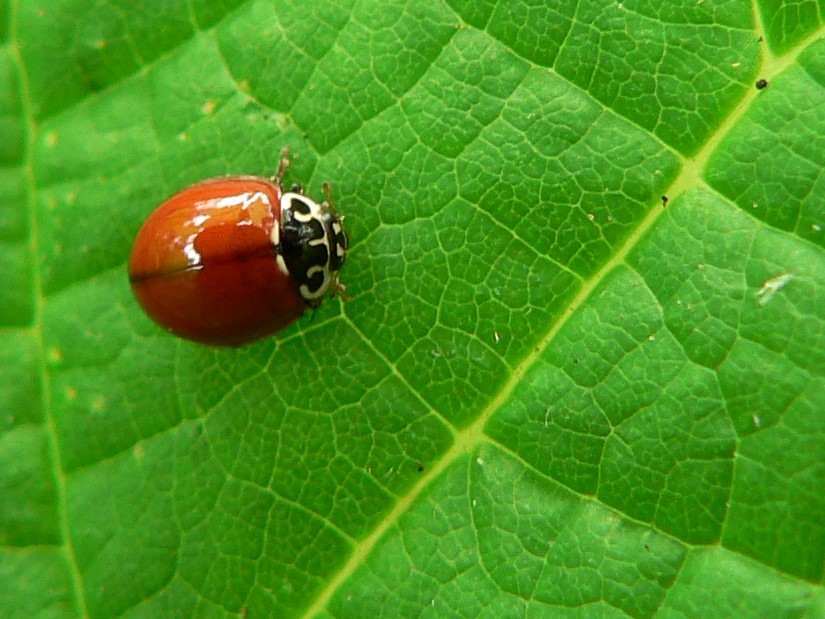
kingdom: Animalia
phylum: Arthropoda
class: Insecta
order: Coleoptera
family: Coccinellidae
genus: Cycloneda
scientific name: Cycloneda polita
